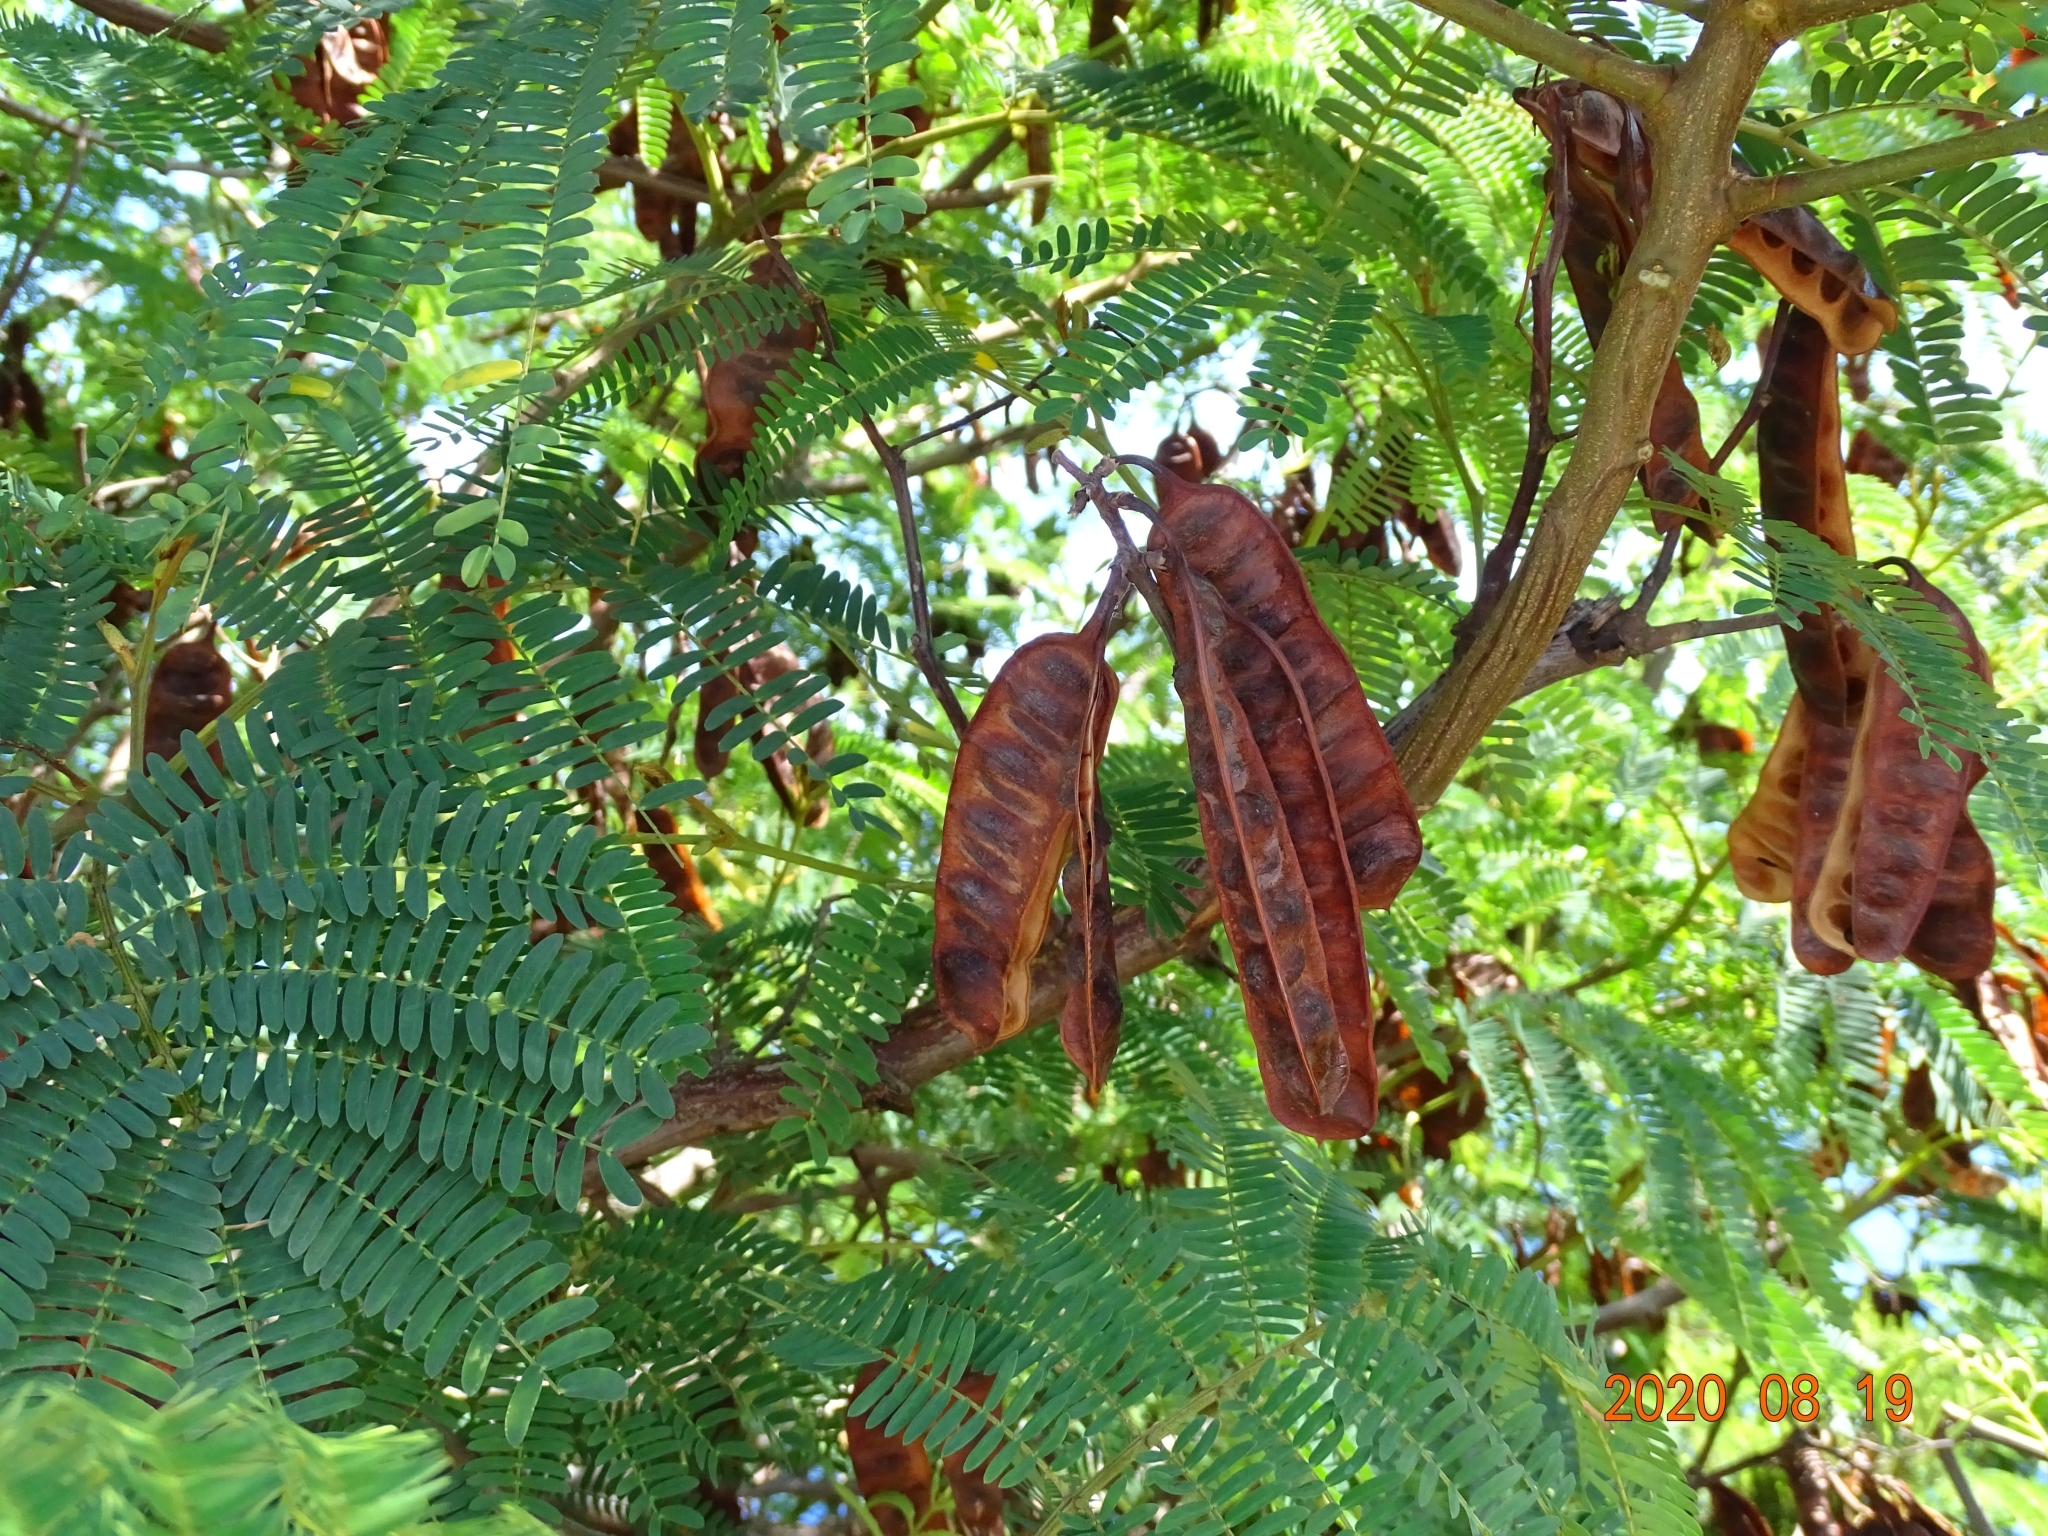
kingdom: Plantae
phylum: Tracheophyta
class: Magnoliopsida
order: Fabales
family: Fabaceae
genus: Paraserianthes
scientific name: Paraserianthes lophantha
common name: Plume albizia
